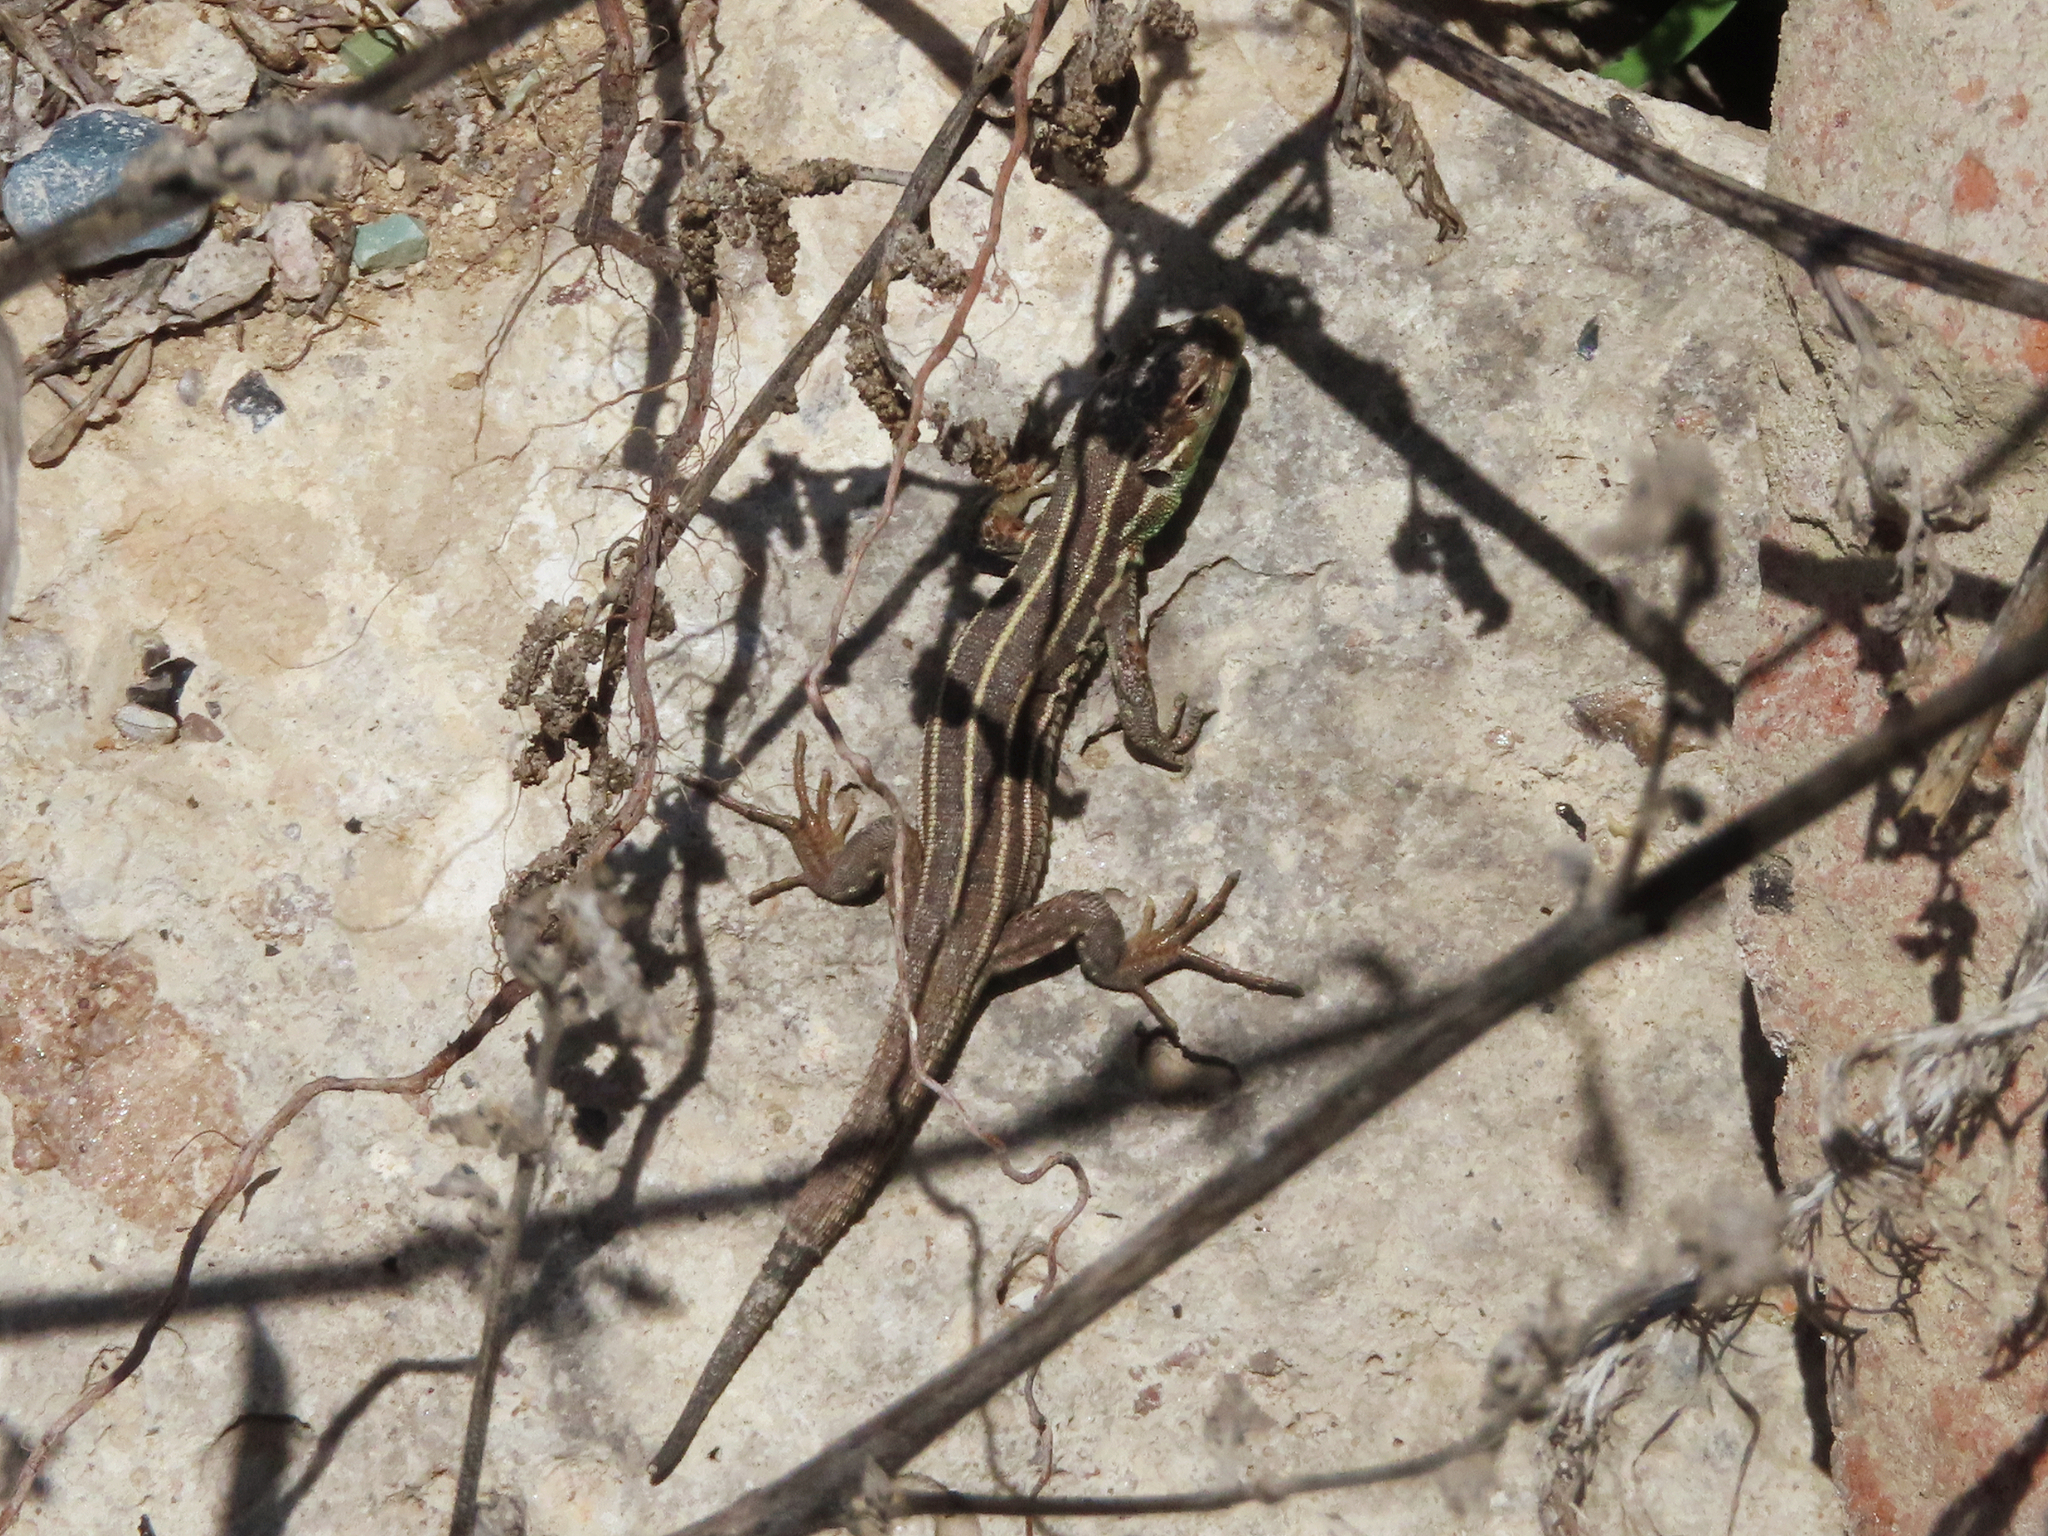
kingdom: Animalia
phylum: Chordata
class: Squamata
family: Lacertidae
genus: Lacerta
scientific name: Lacerta strigata
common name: Caspian green lizard
